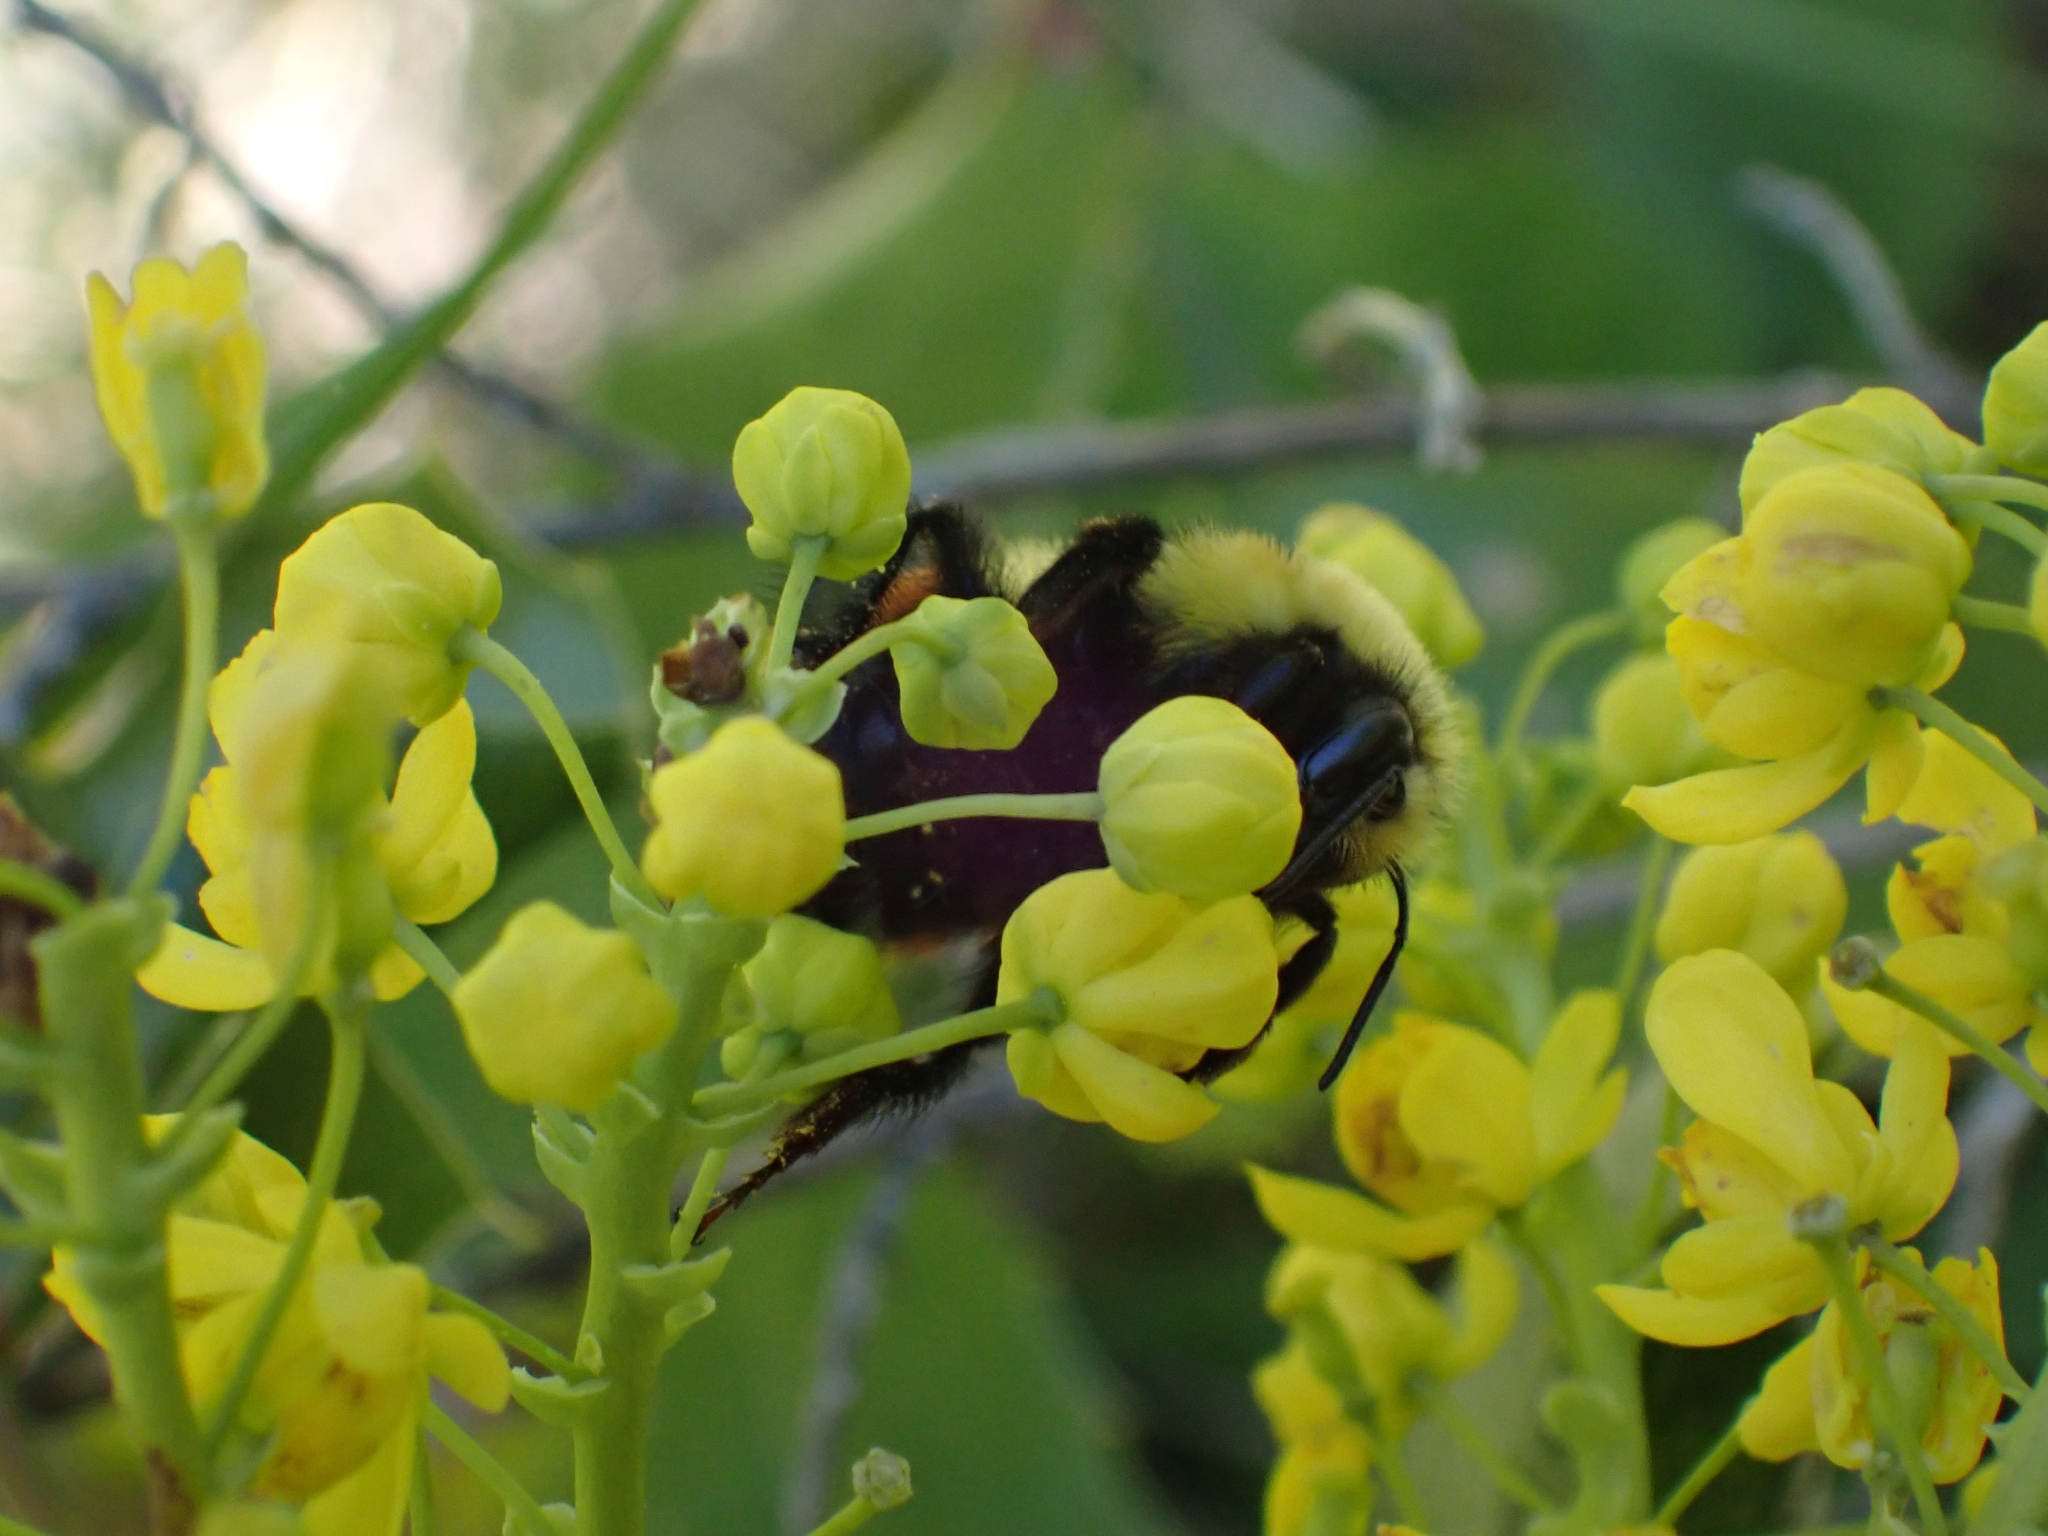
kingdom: Animalia
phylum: Arthropoda
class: Insecta
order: Hymenoptera
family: Apidae
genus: Bombus
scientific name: Bombus huntii
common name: Hunt bumble bee
